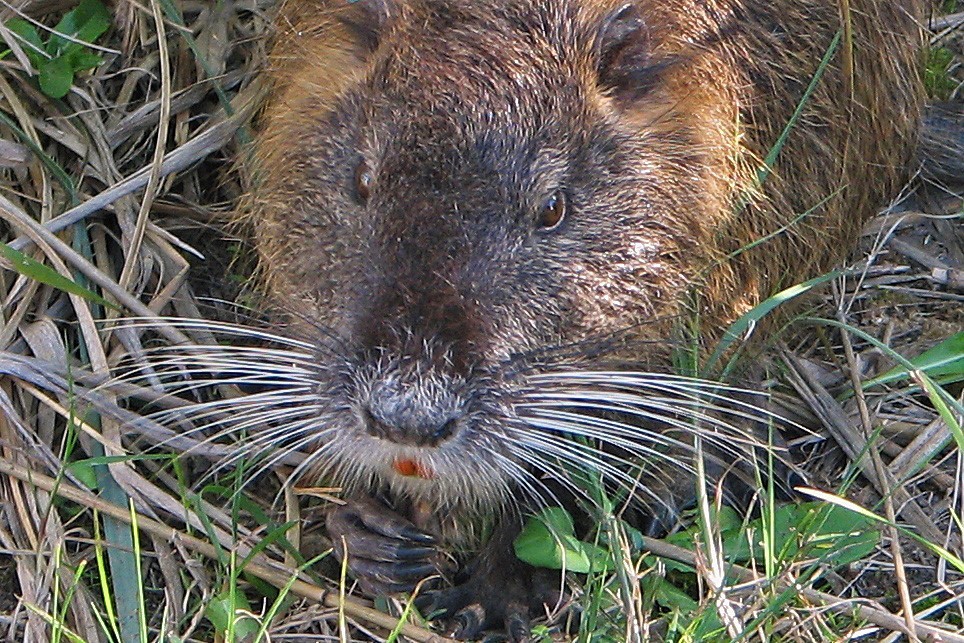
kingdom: Animalia
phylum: Chordata
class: Mammalia
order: Rodentia
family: Myocastoridae
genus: Myocastor
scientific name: Myocastor coypus
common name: Coypu
